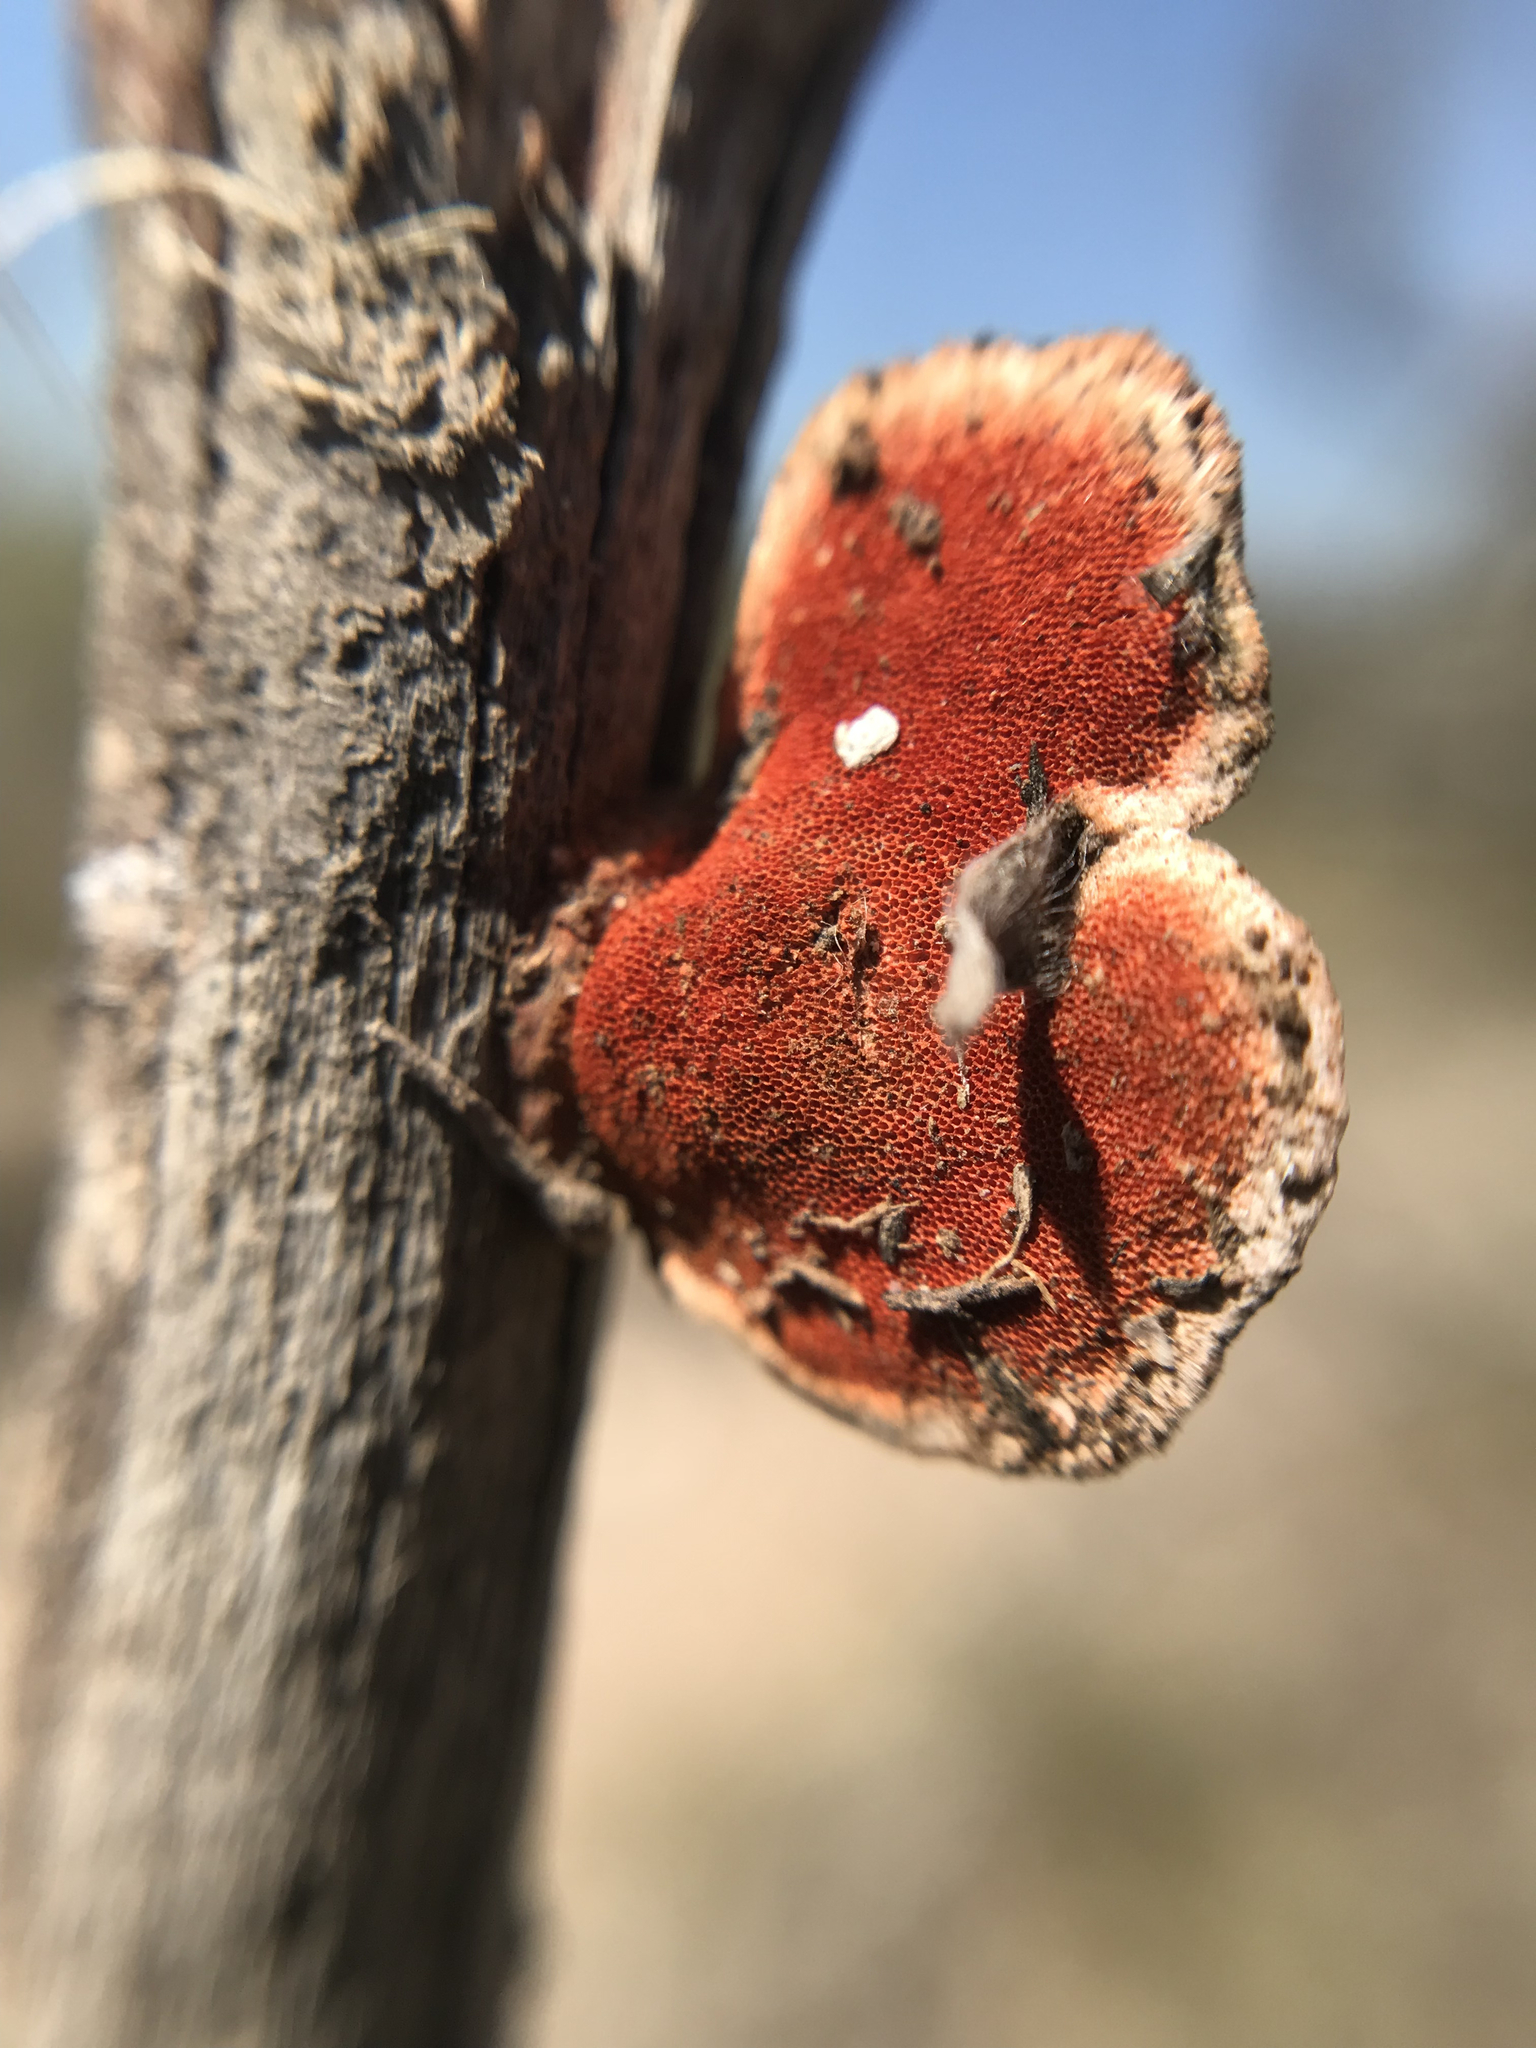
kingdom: Fungi
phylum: Basidiomycota
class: Agaricomycetes
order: Polyporales
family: Polyporaceae
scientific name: Polyporaceae
